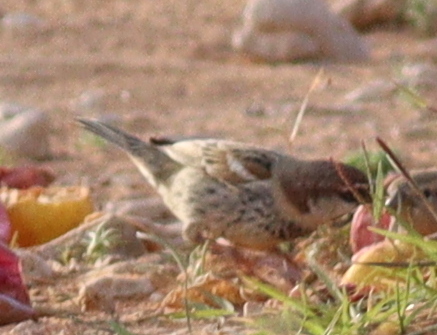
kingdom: Animalia
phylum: Chordata
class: Aves
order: Passeriformes
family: Passeridae
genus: Passer
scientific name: Passer hispaniolensis
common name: Spanish sparrow
